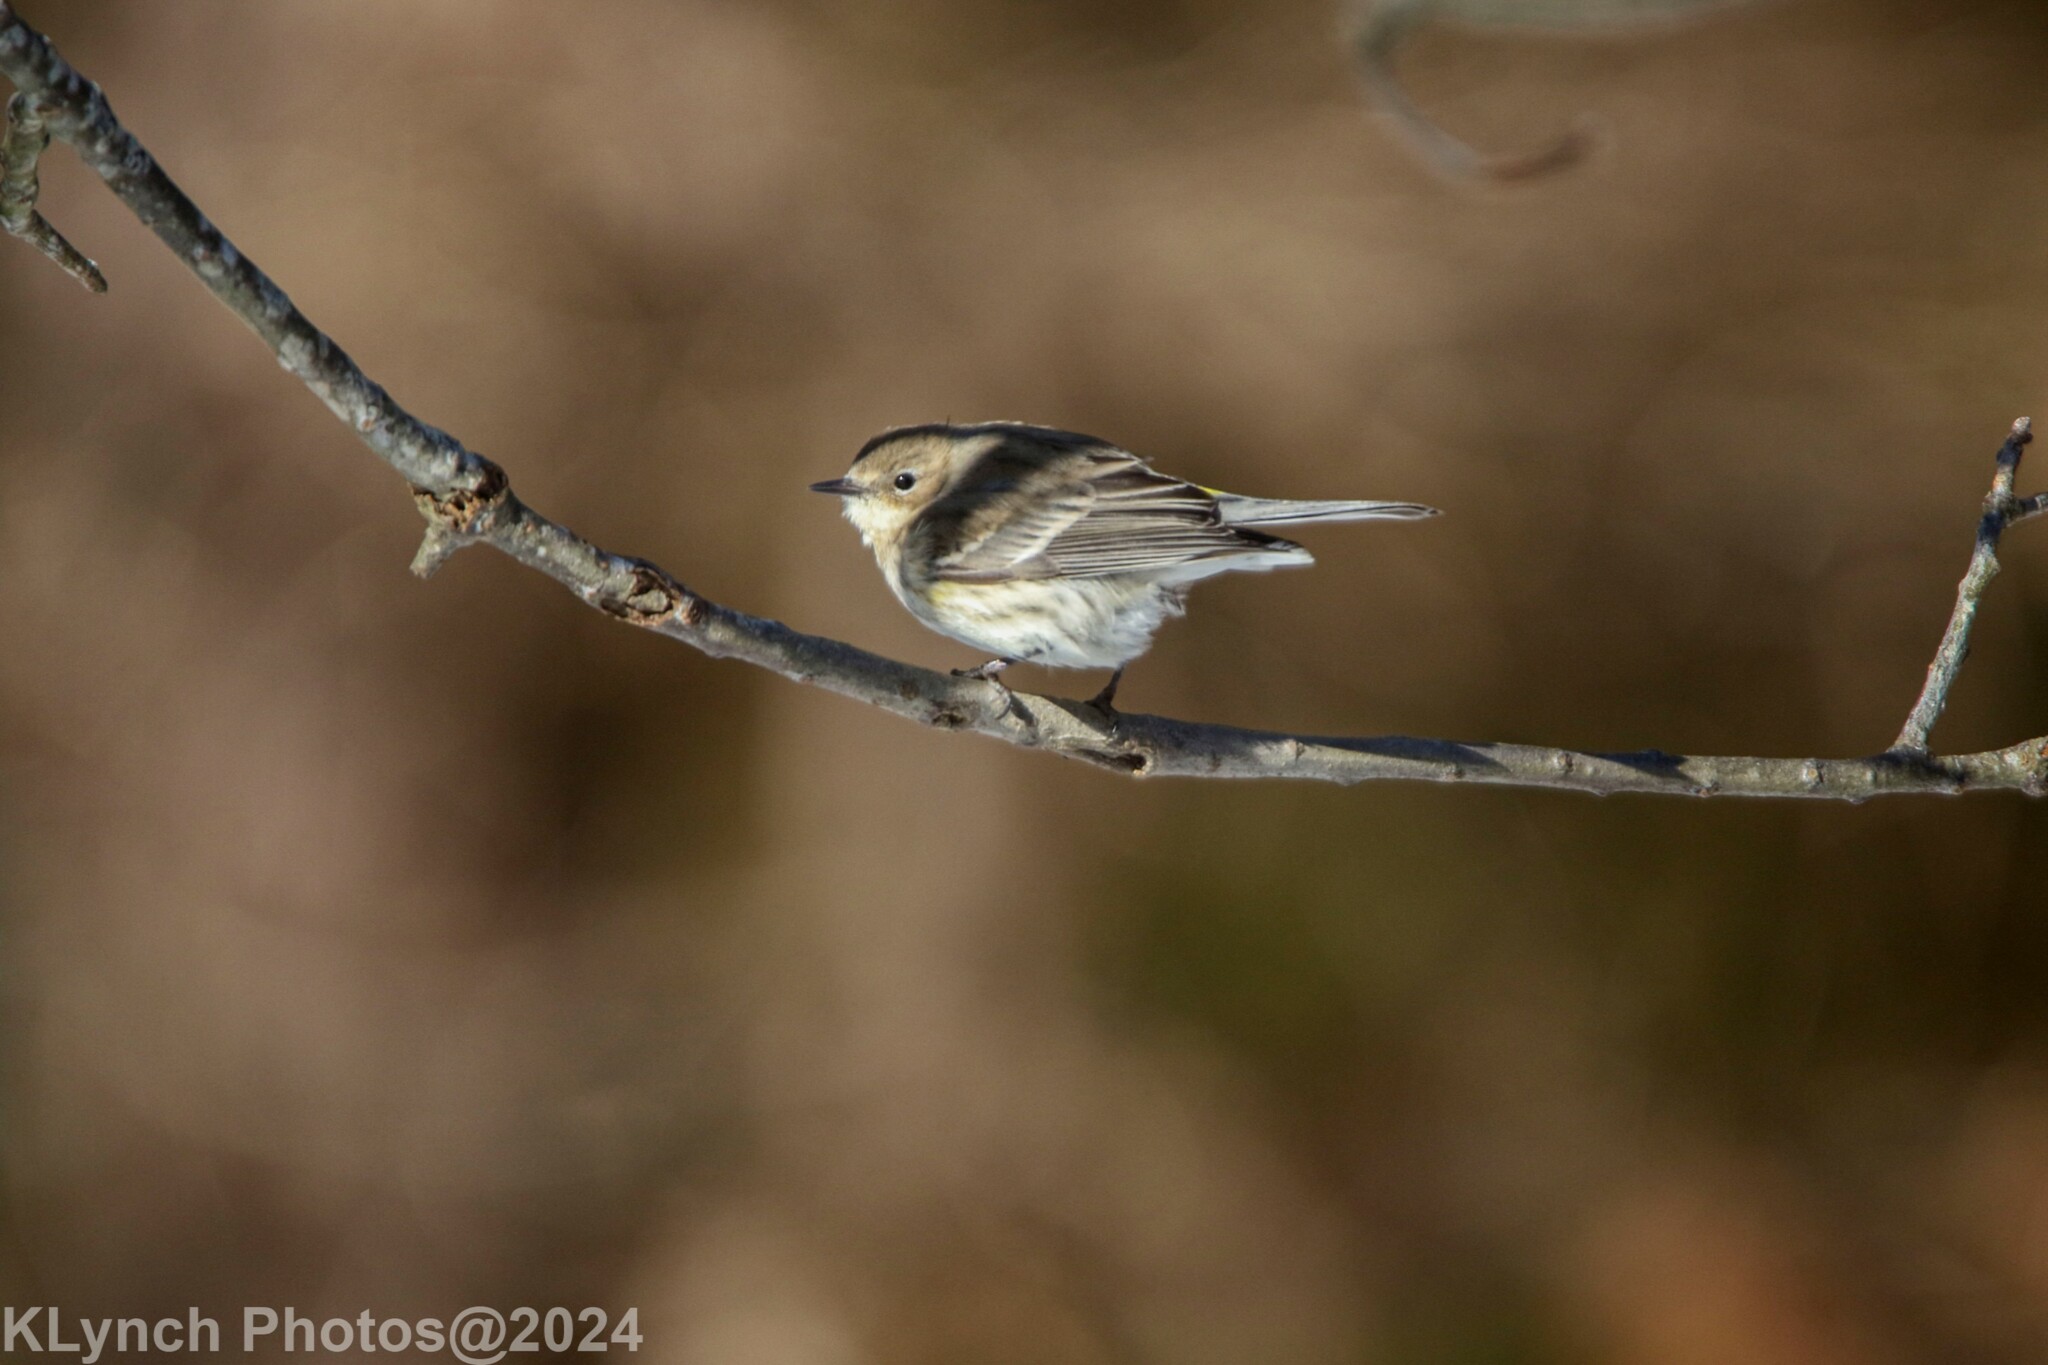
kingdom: Animalia
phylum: Chordata
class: Aves
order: Passeriformes
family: Parulidae
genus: Setophaga
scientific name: Setophaga coronata
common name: Myrtle warbler
